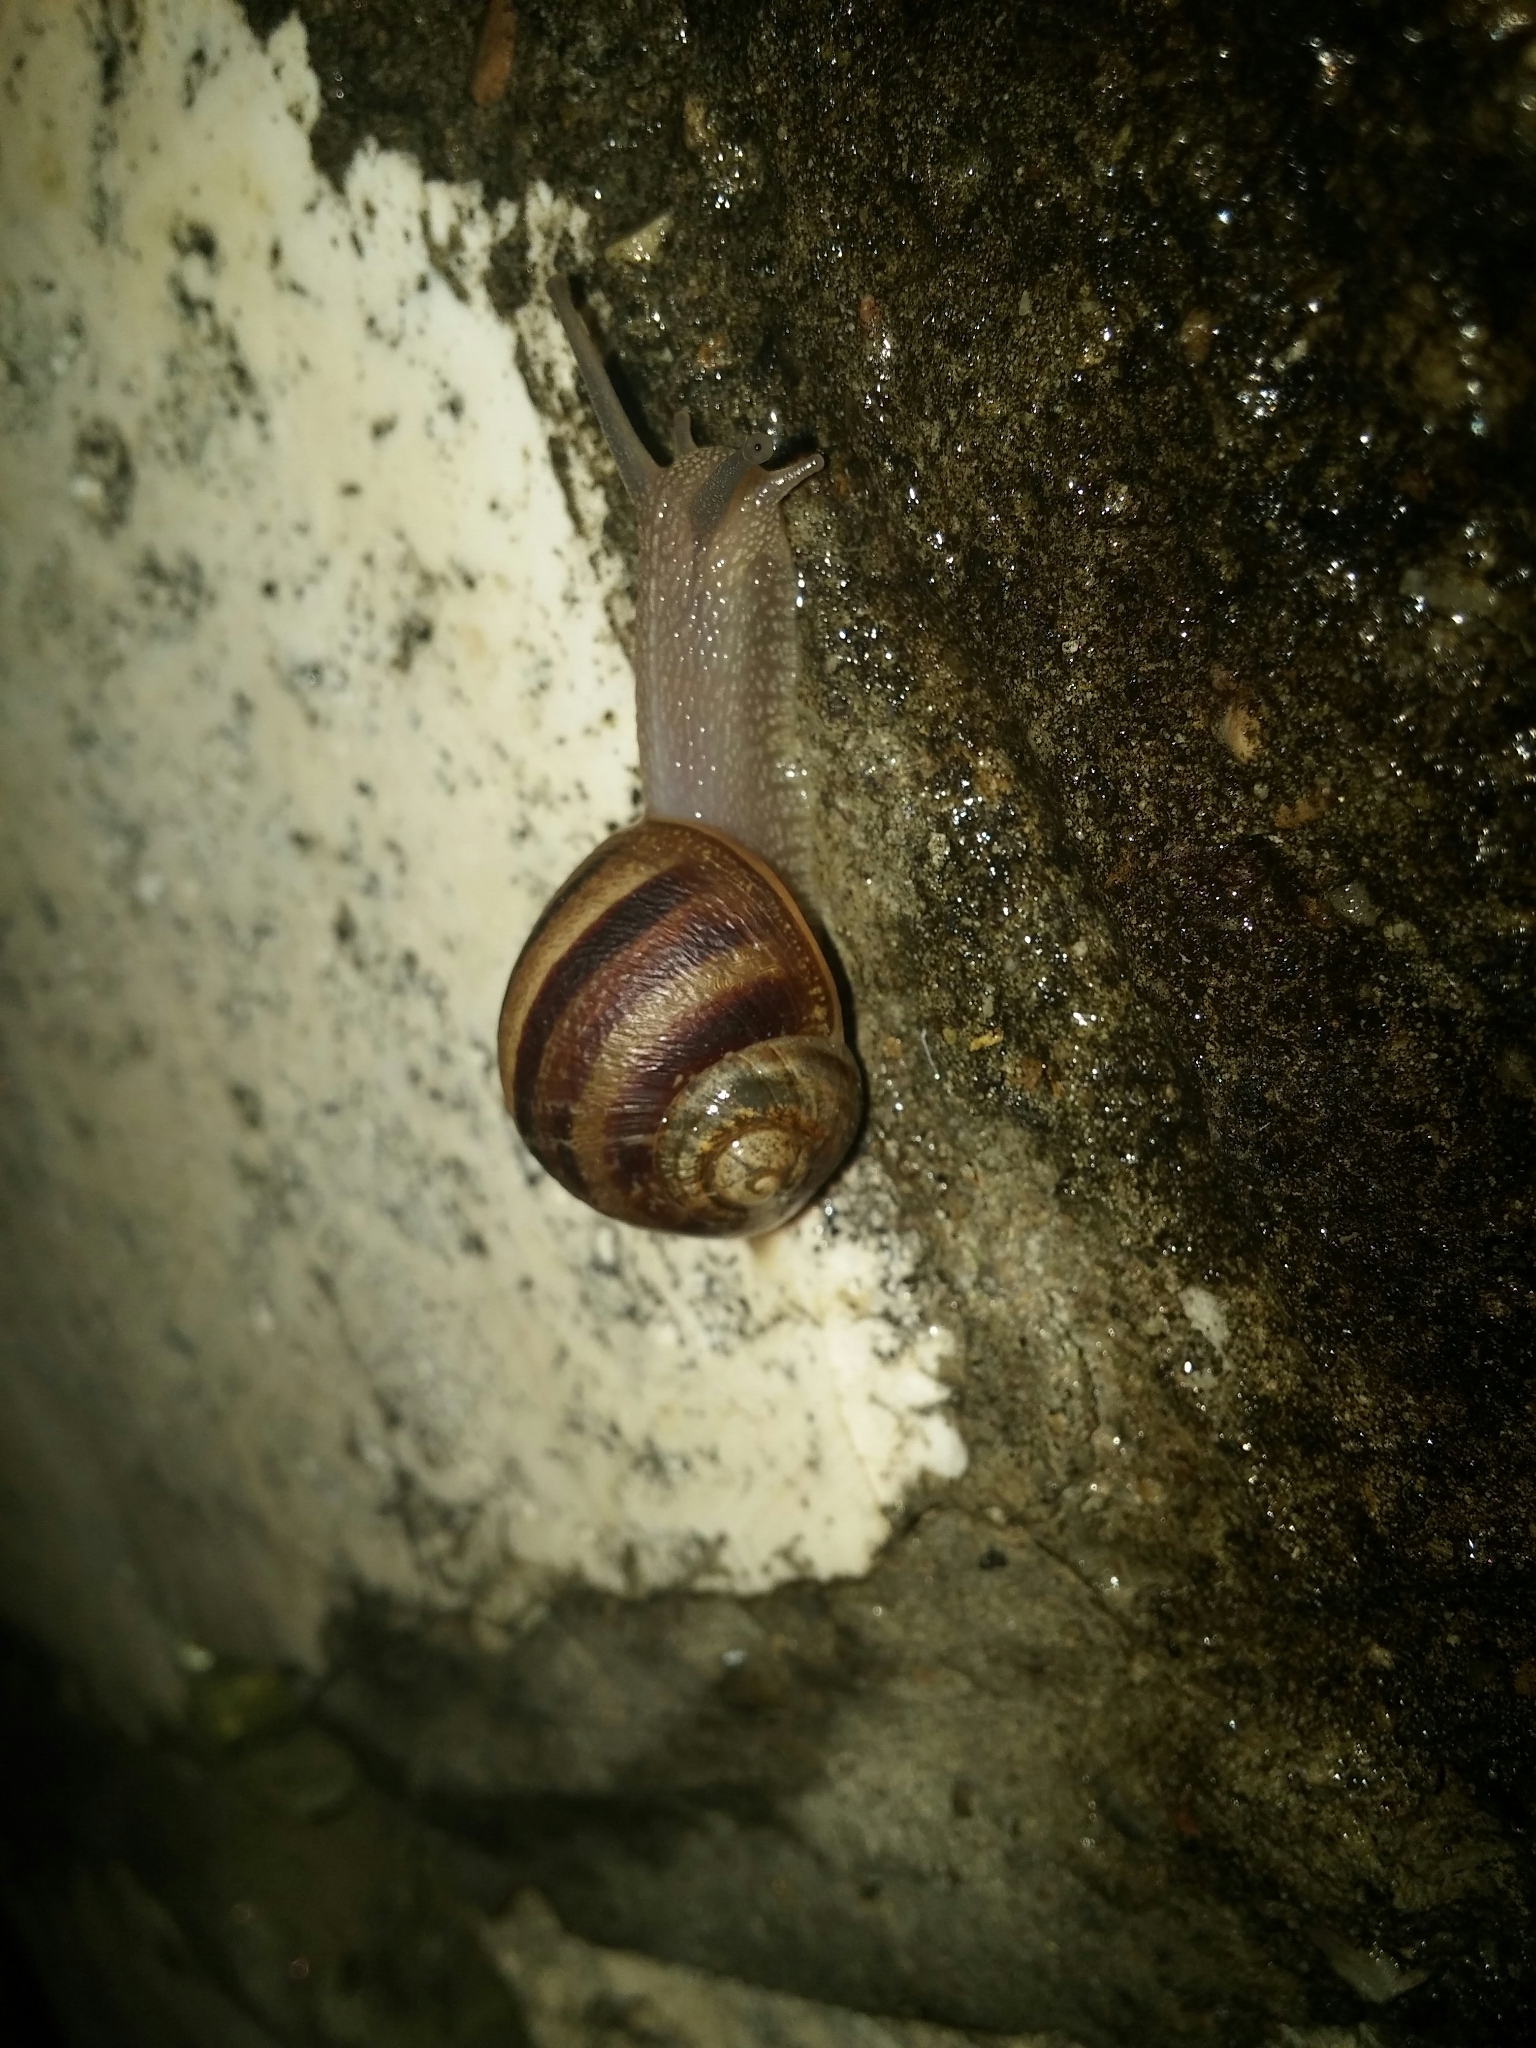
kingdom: Animalia
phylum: Mollusca
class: Gastropoda
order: Stylommatophora
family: Helicidae
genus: Cornu
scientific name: Cornu aspersum
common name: Brown garden snail
